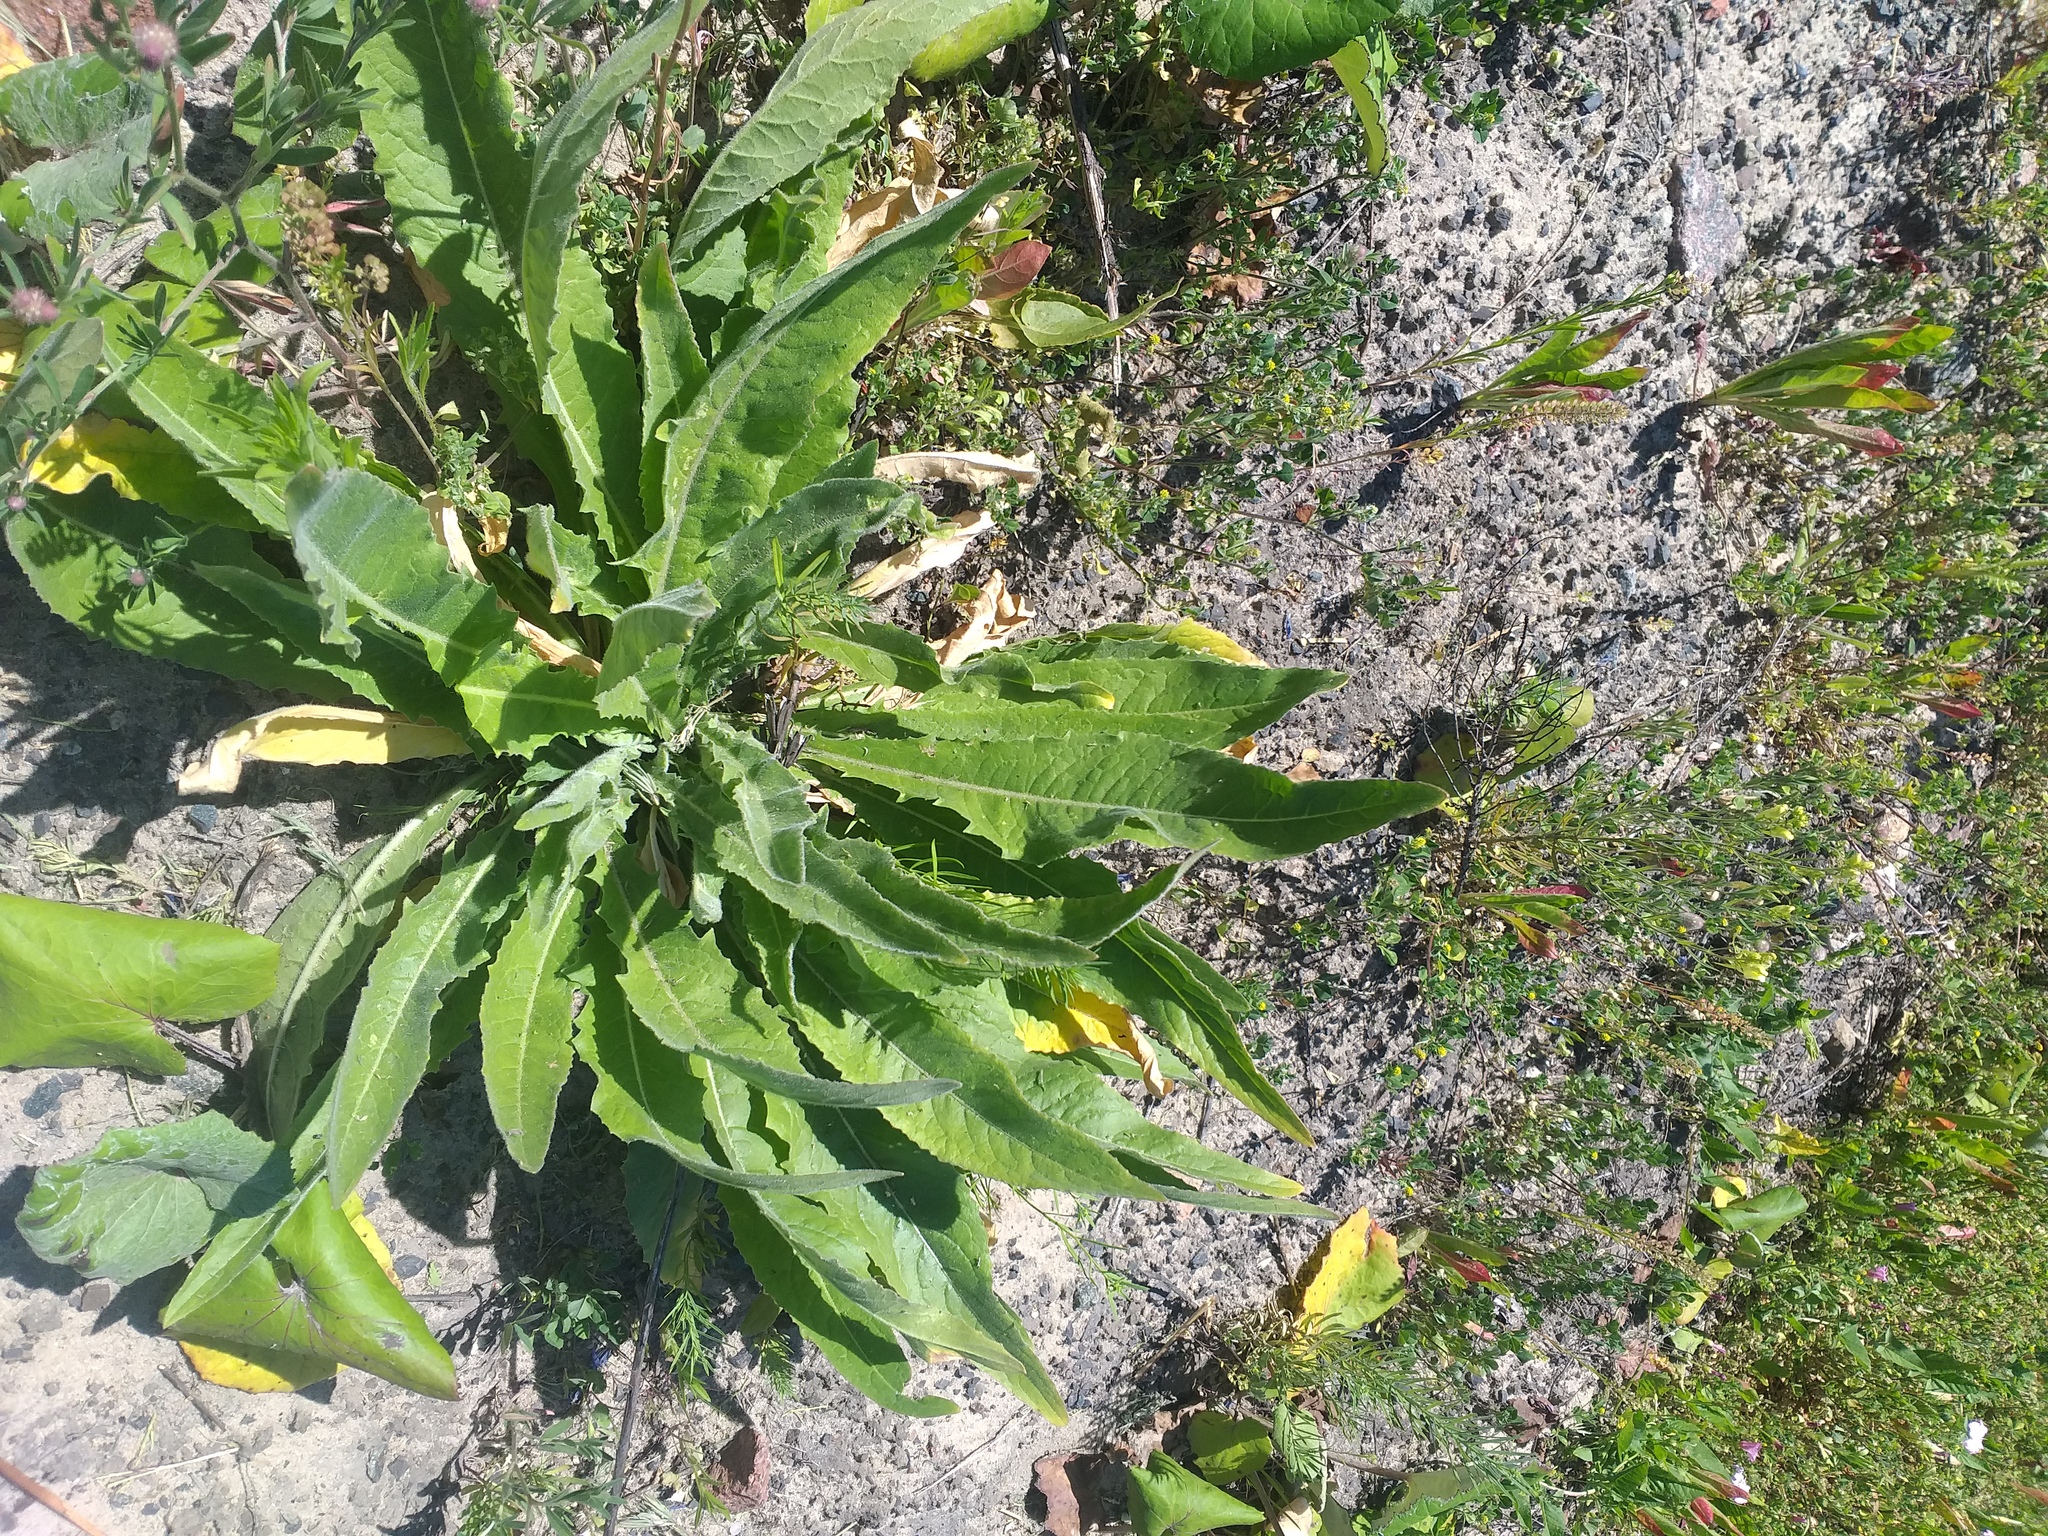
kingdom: Plantae
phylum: Tracheophyta
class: Magnoliopsida
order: Brassicales
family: Brassicaceae
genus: Bunias
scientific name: Bunias orientalis
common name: Warty-cabbage
